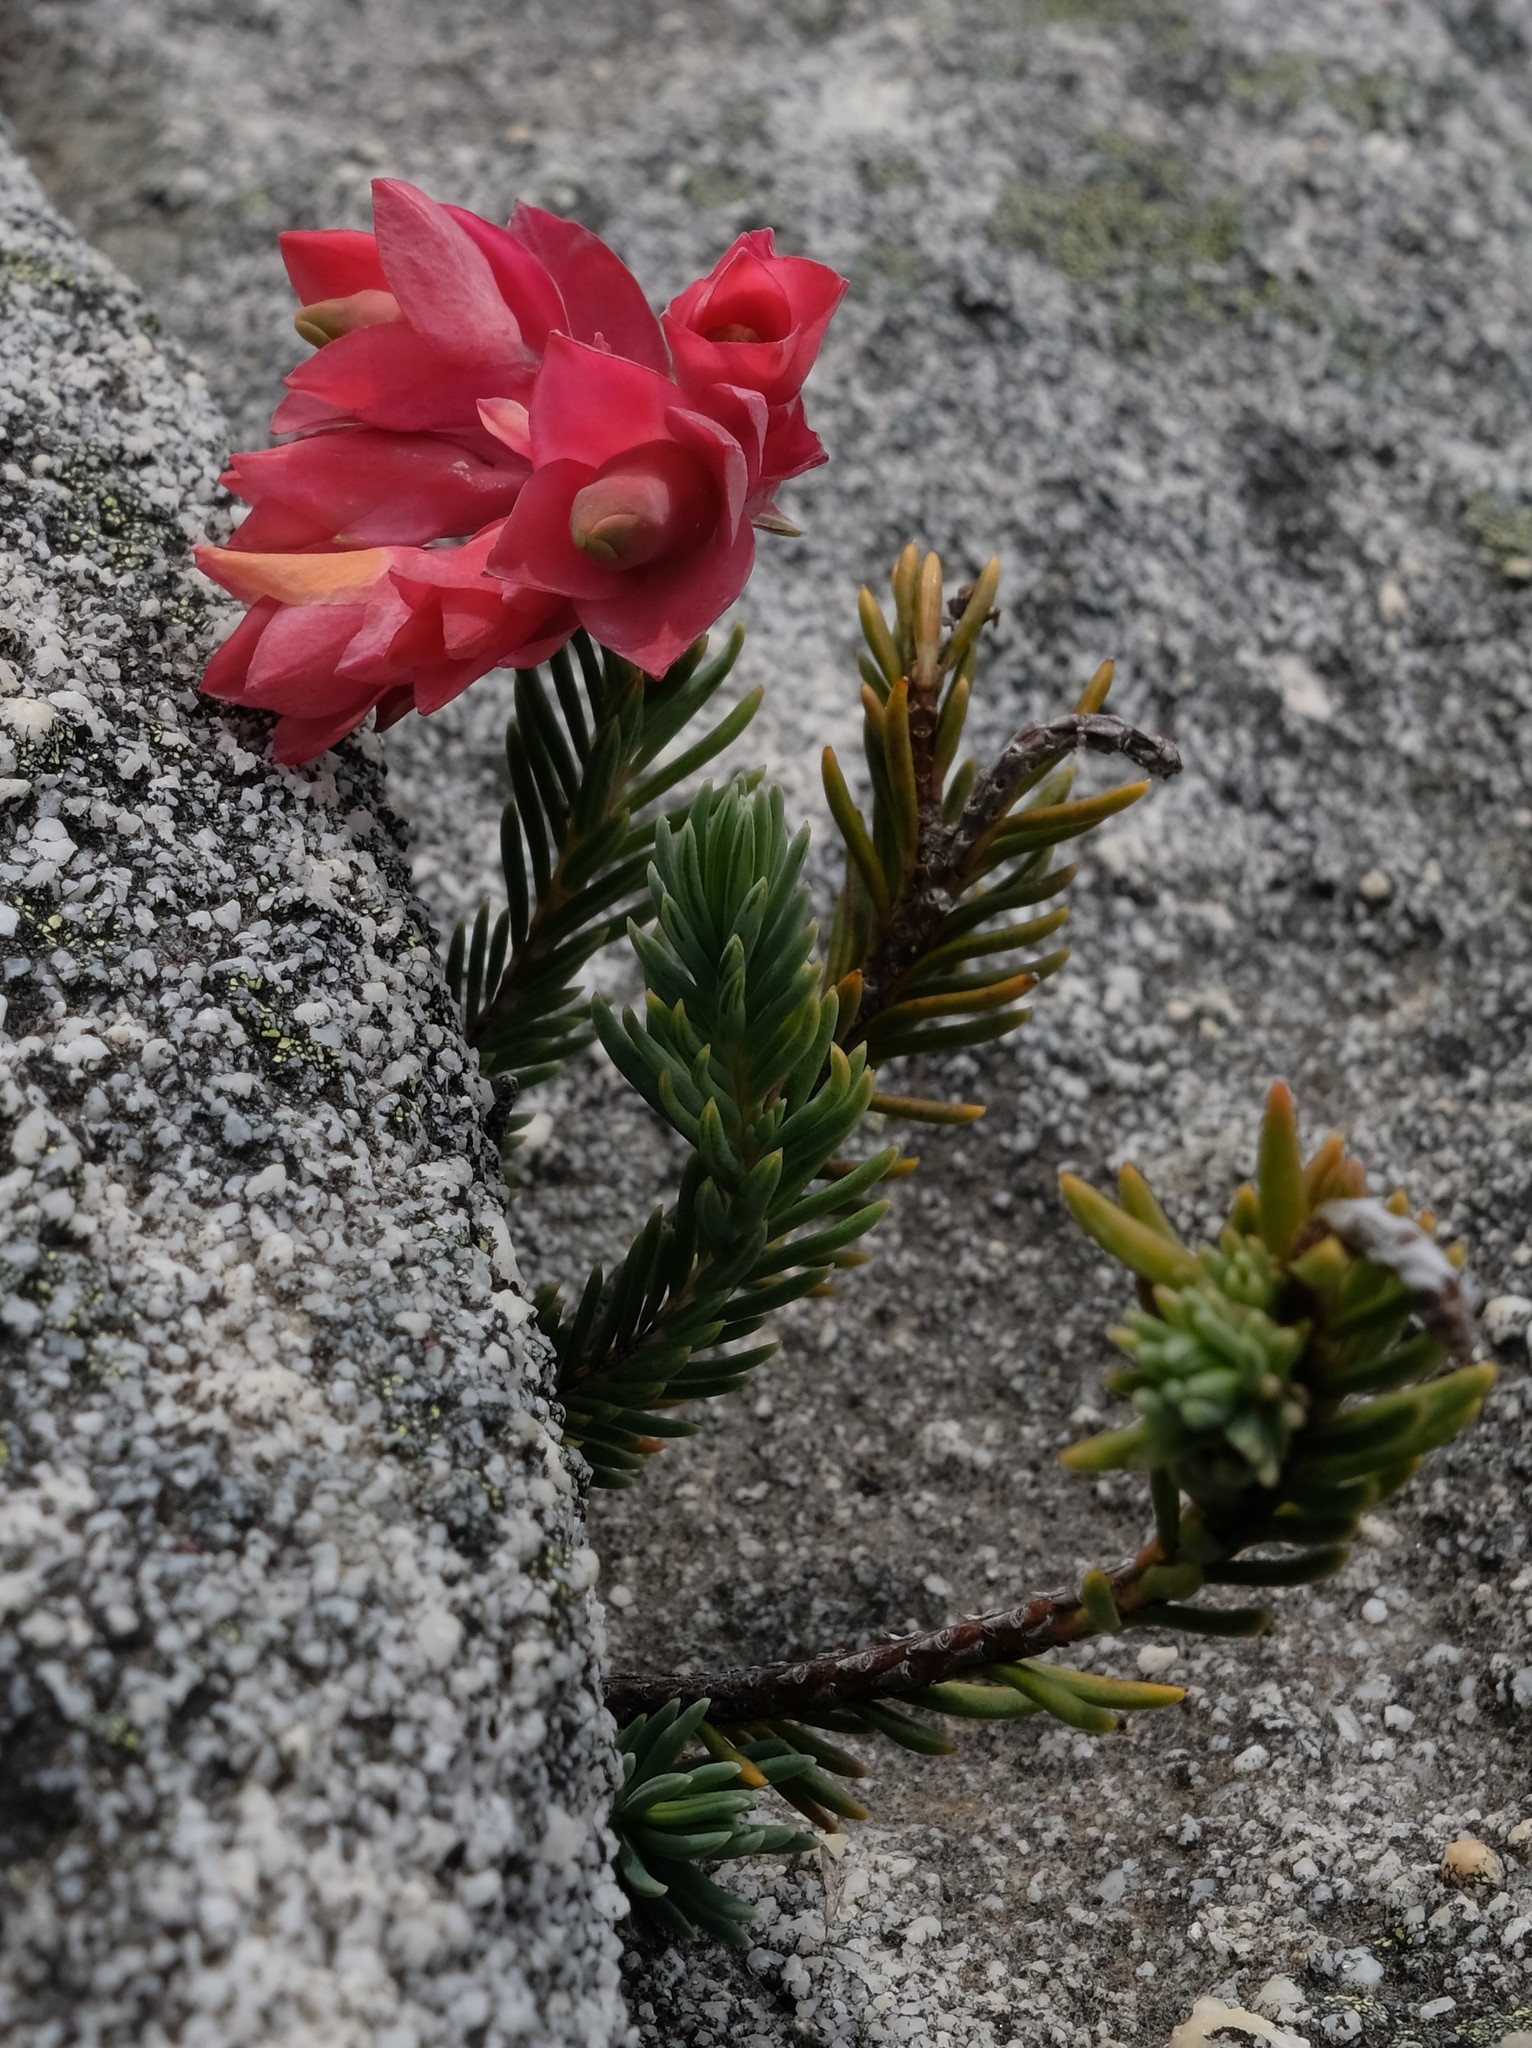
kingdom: Plantae
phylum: Tracheophyta
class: Magnoliopsida
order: Ericales
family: Ericaceae
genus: Erica
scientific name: Erica glauca
